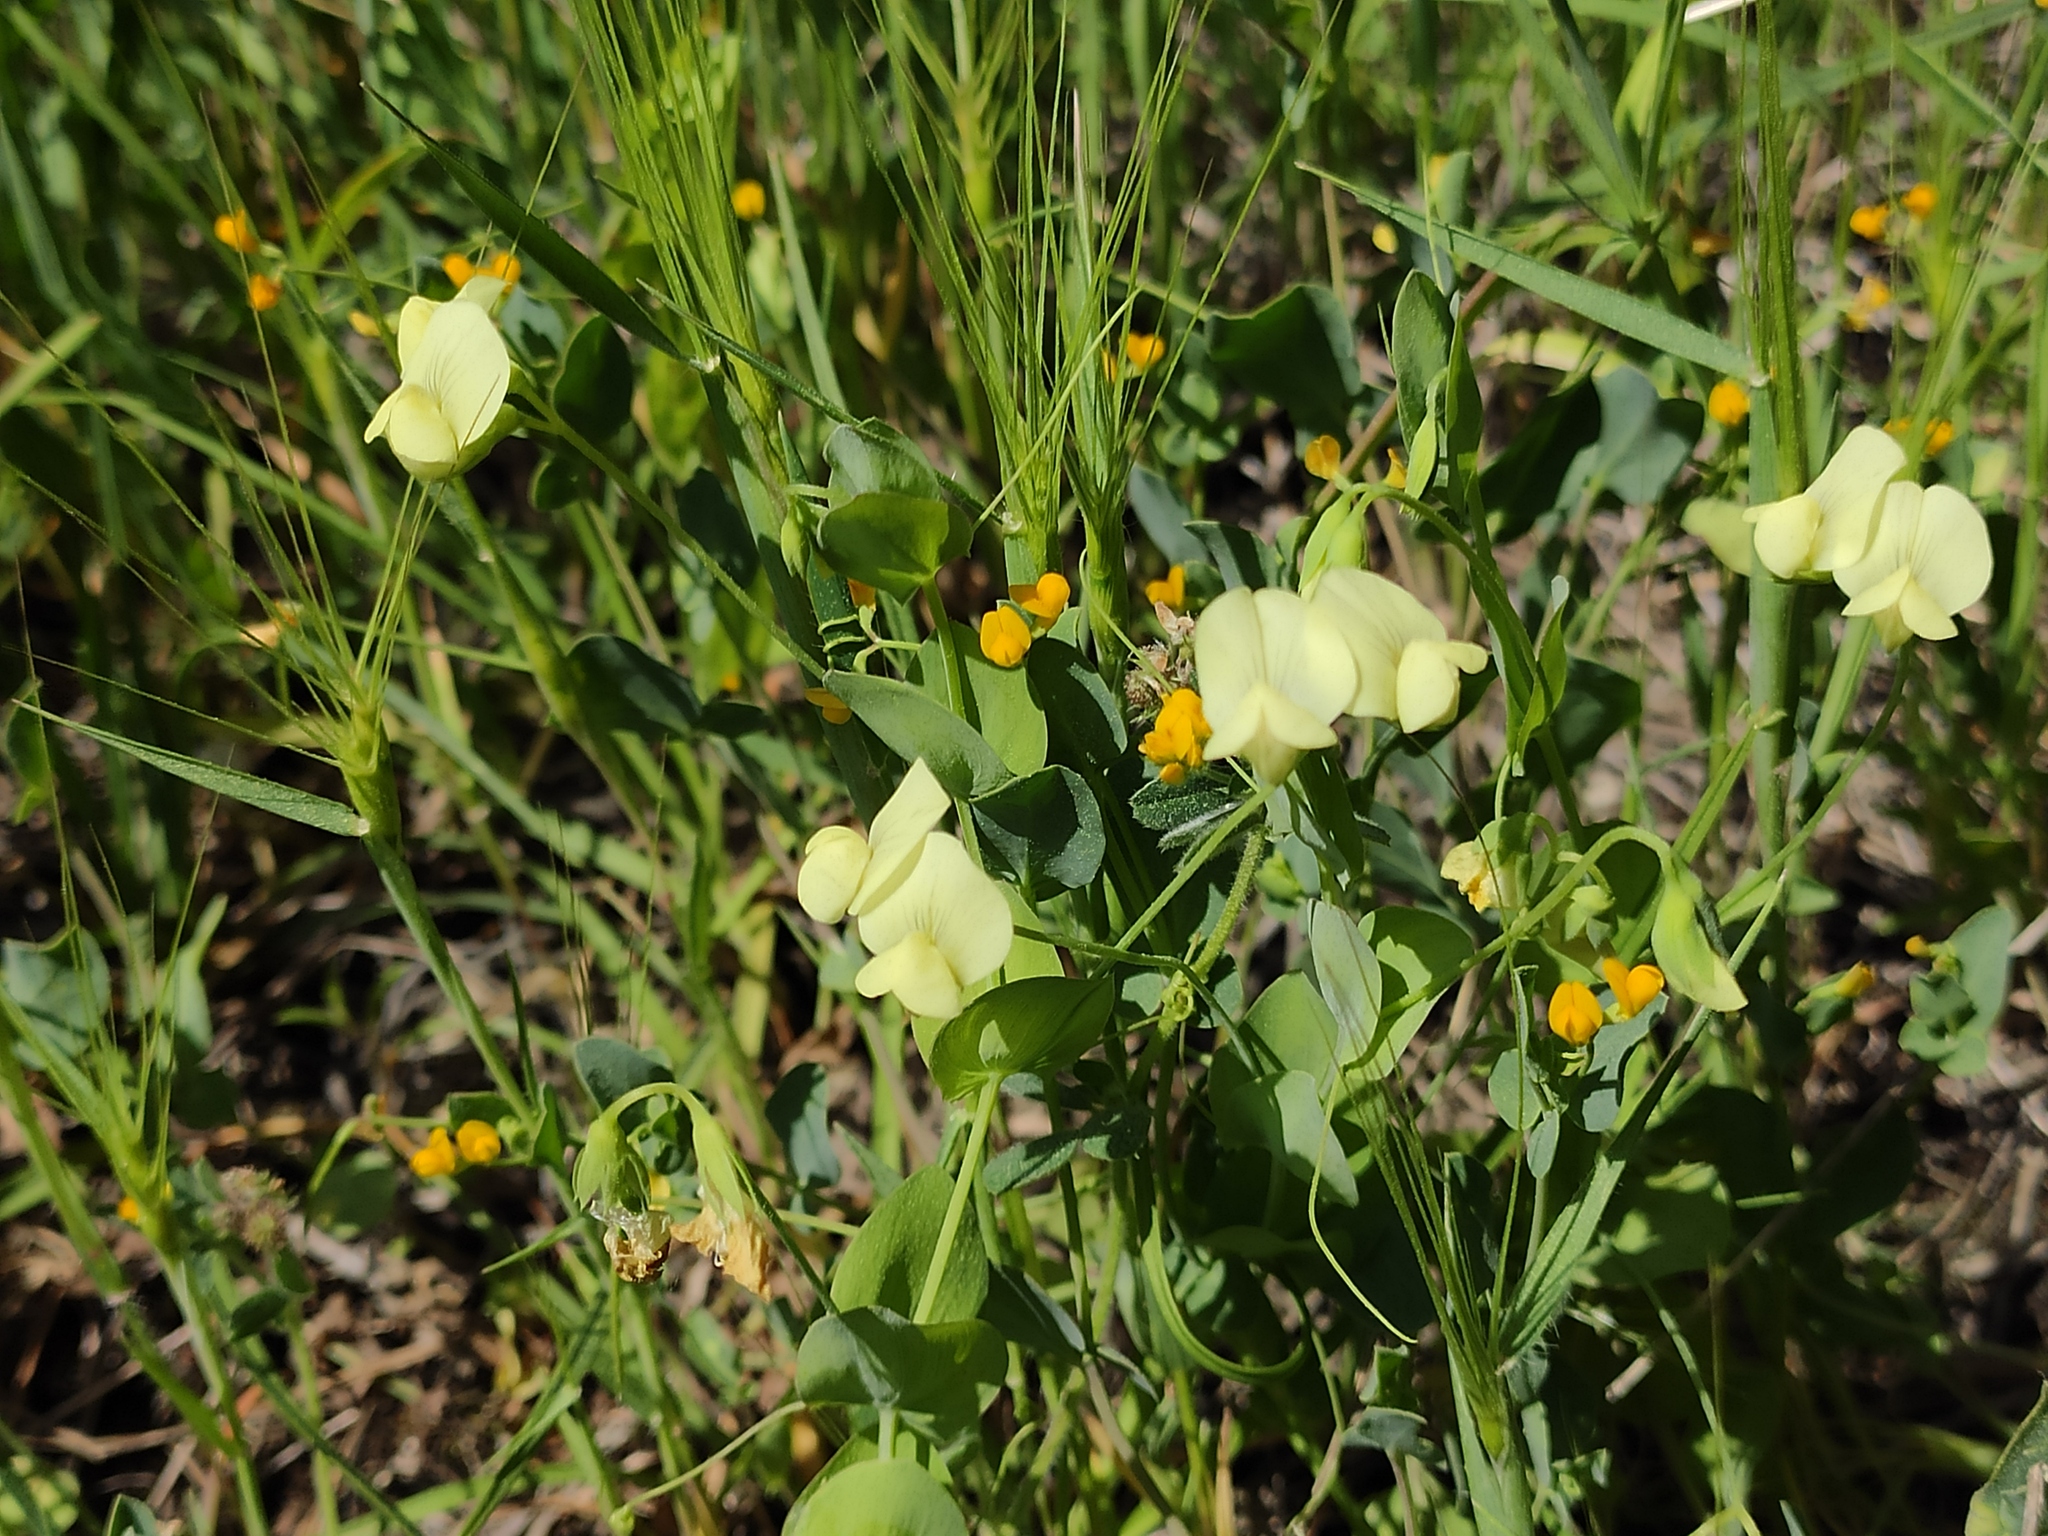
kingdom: Plantae
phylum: Tracheophyta
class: Magnoliopsida
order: Fabales
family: Fabaceae
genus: Lathyrus
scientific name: Lathyrus aphaca
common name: Yellow vetchling
